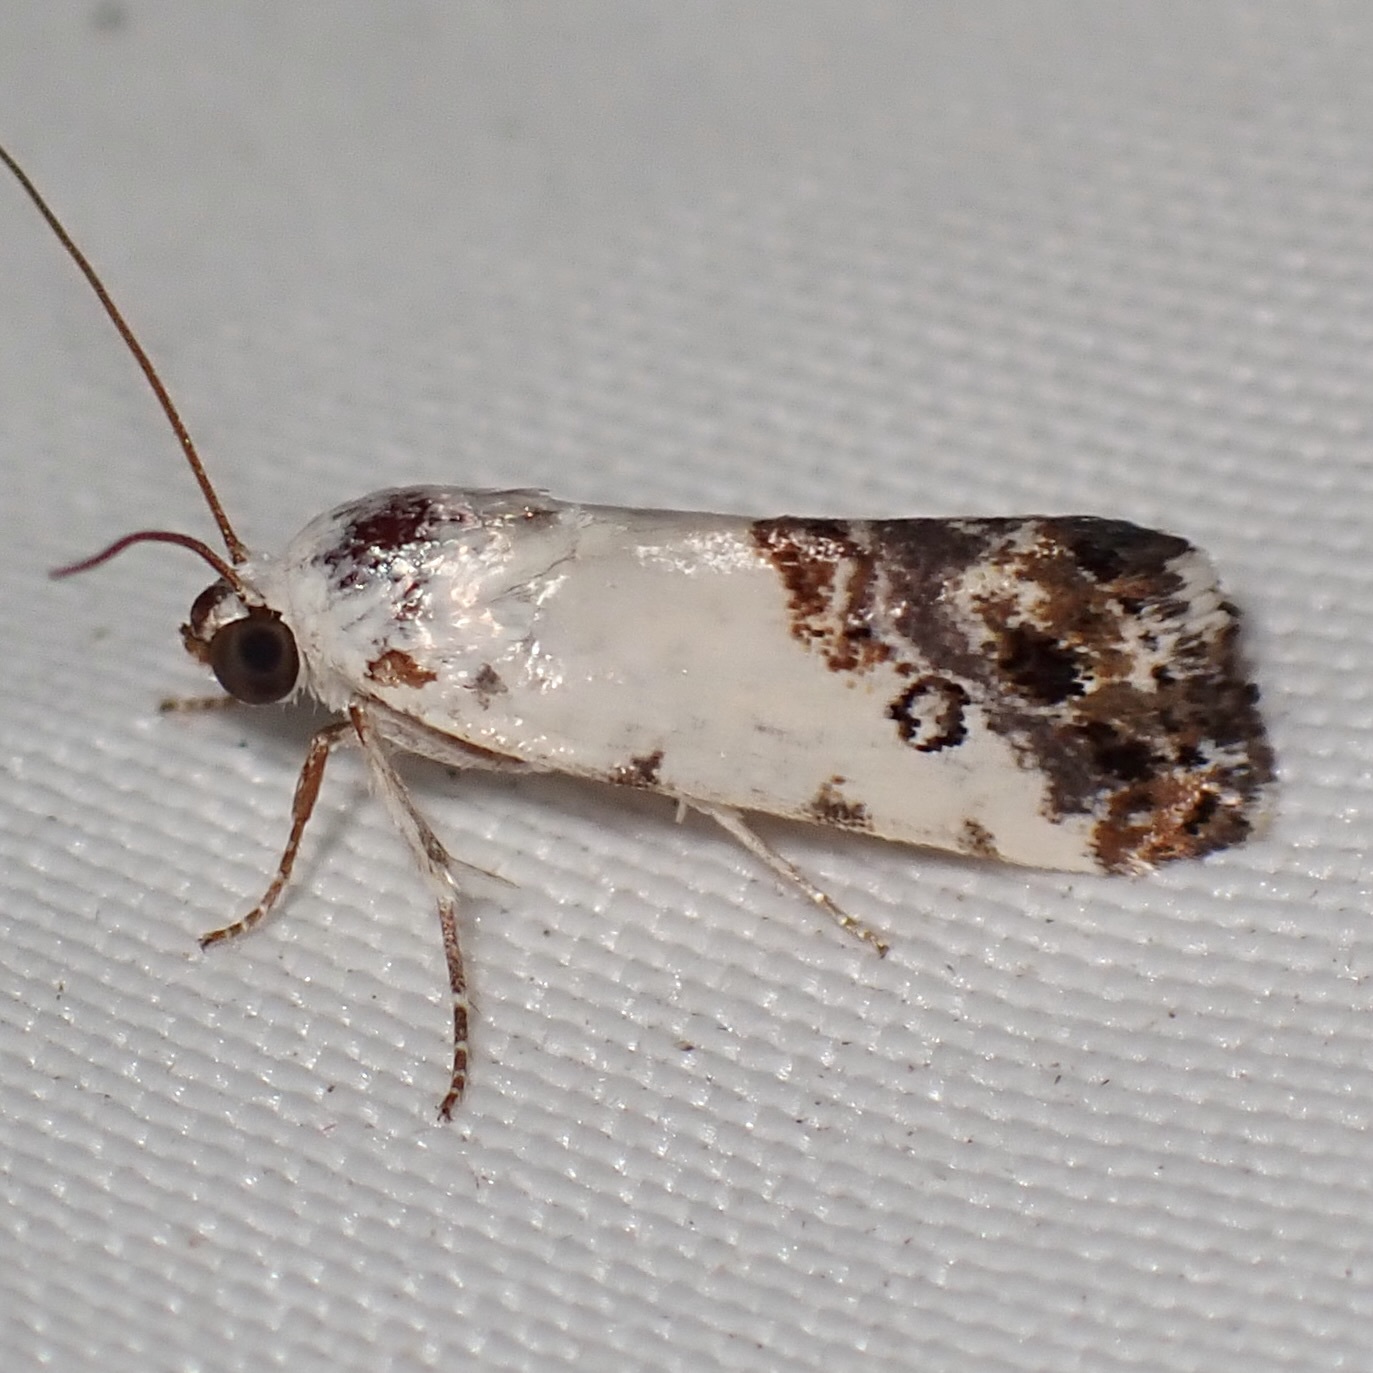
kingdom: Animalia
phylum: Arthropoda
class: Insecta
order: Lepidoptera
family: Noctuidae
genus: Acontia
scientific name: Acontia phecolisca
